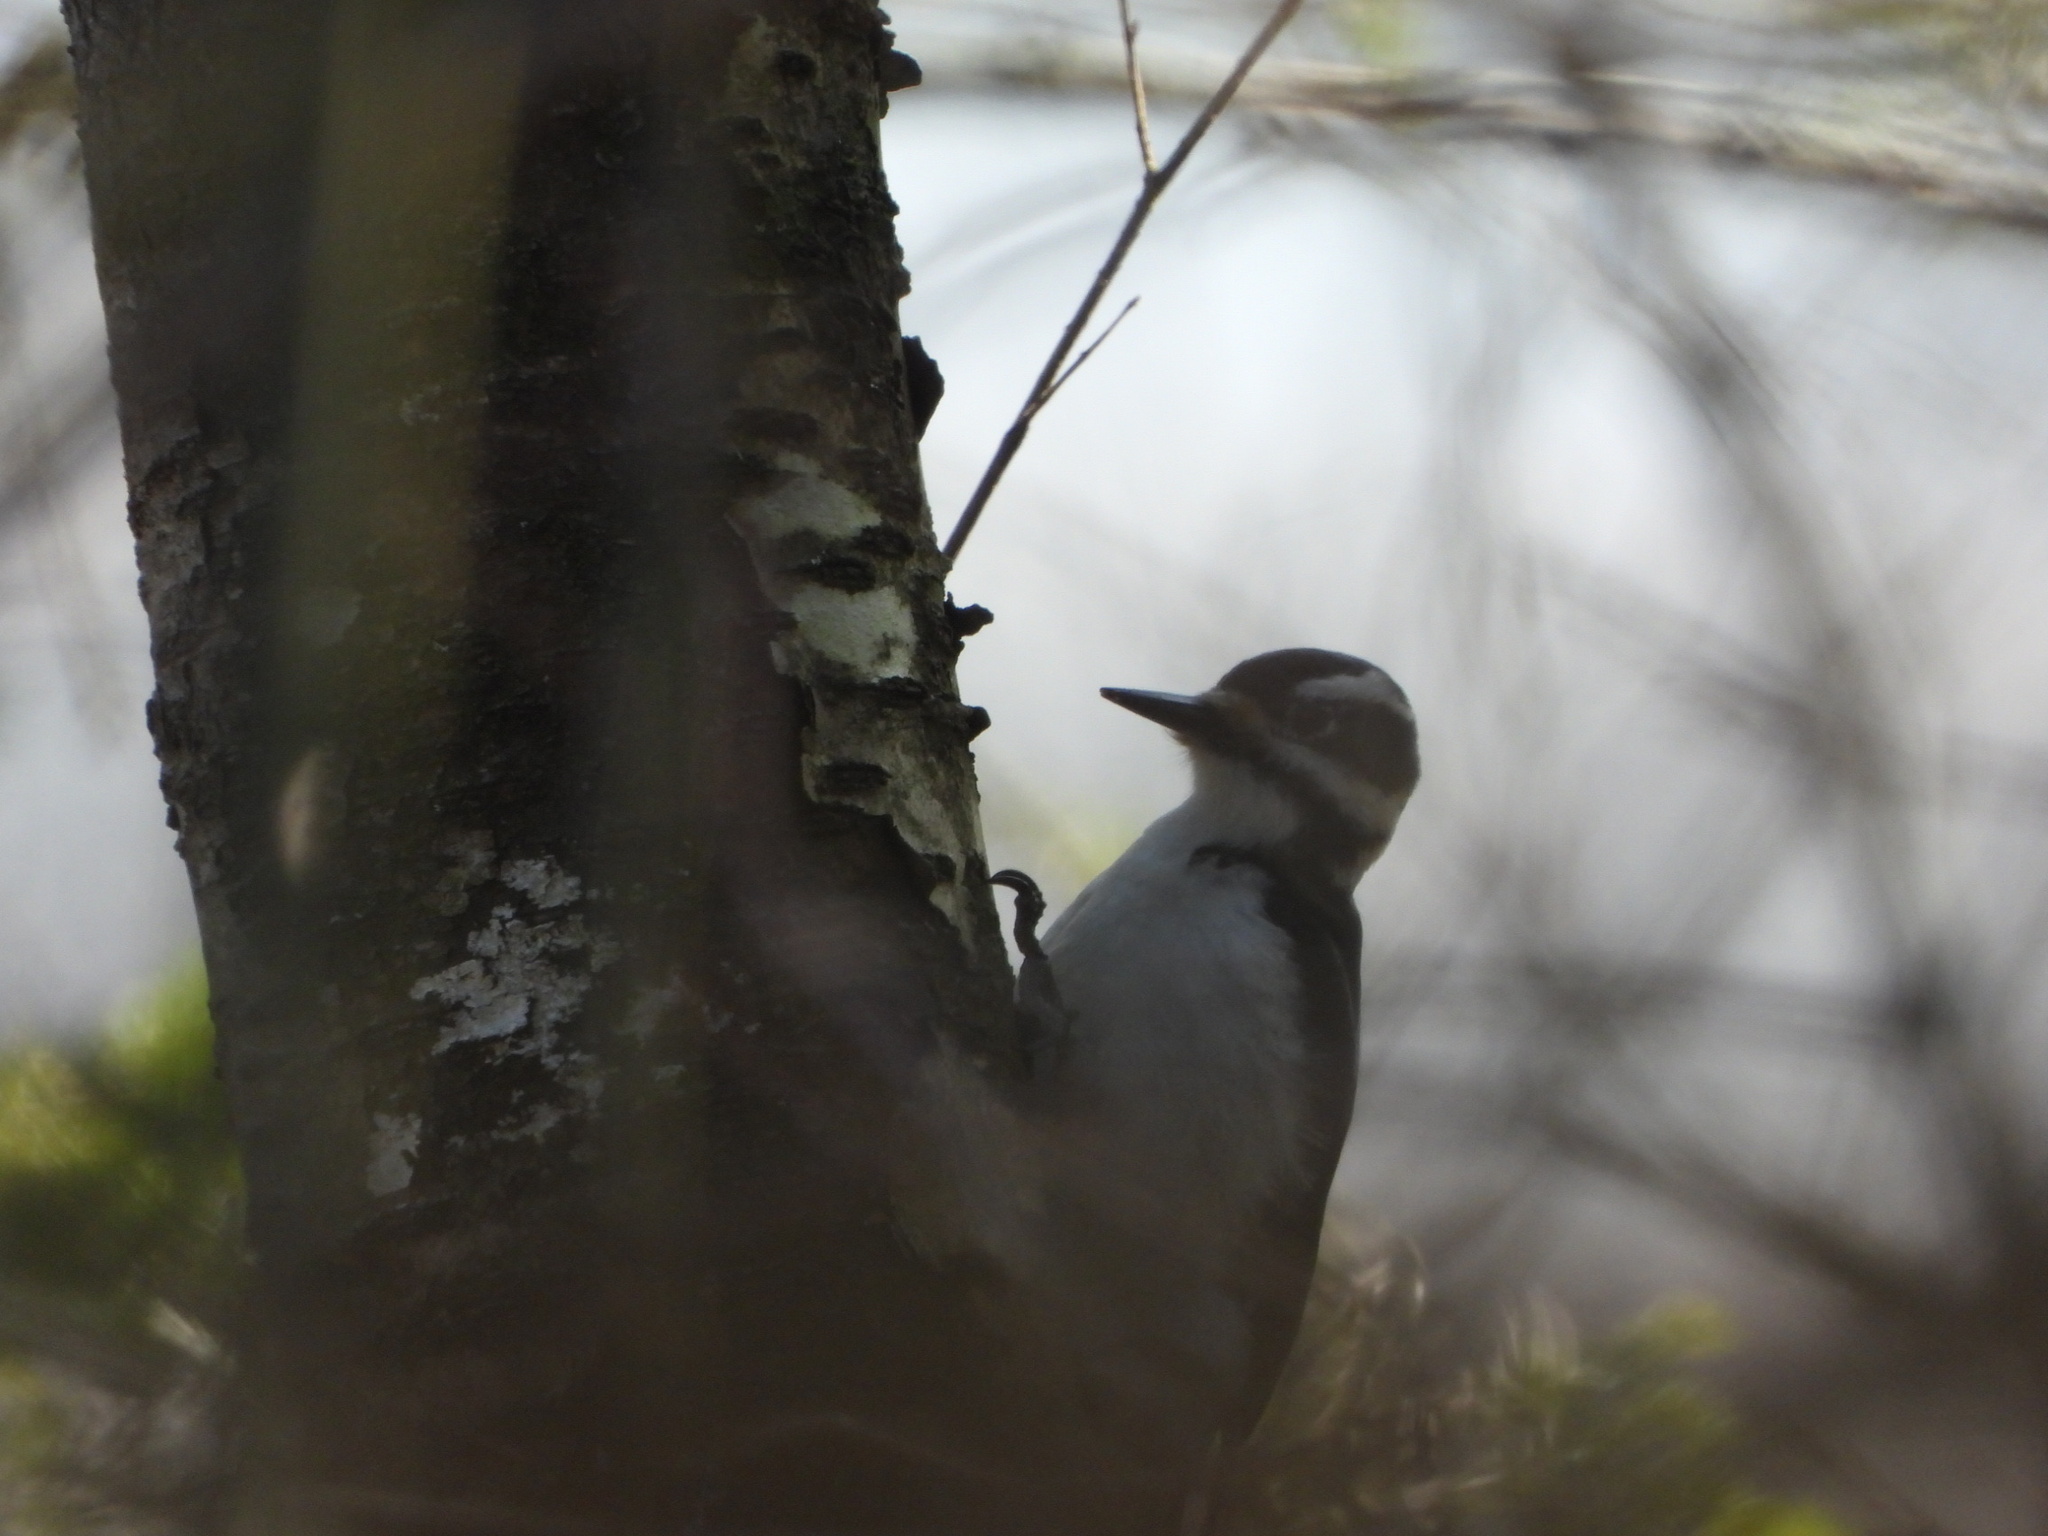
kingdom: Animalia
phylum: Chordata
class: Aves
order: Piciformes
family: Picidae
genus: Leuconotopicus
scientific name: Leuconotopicus villosus
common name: Hairy woodpecker
